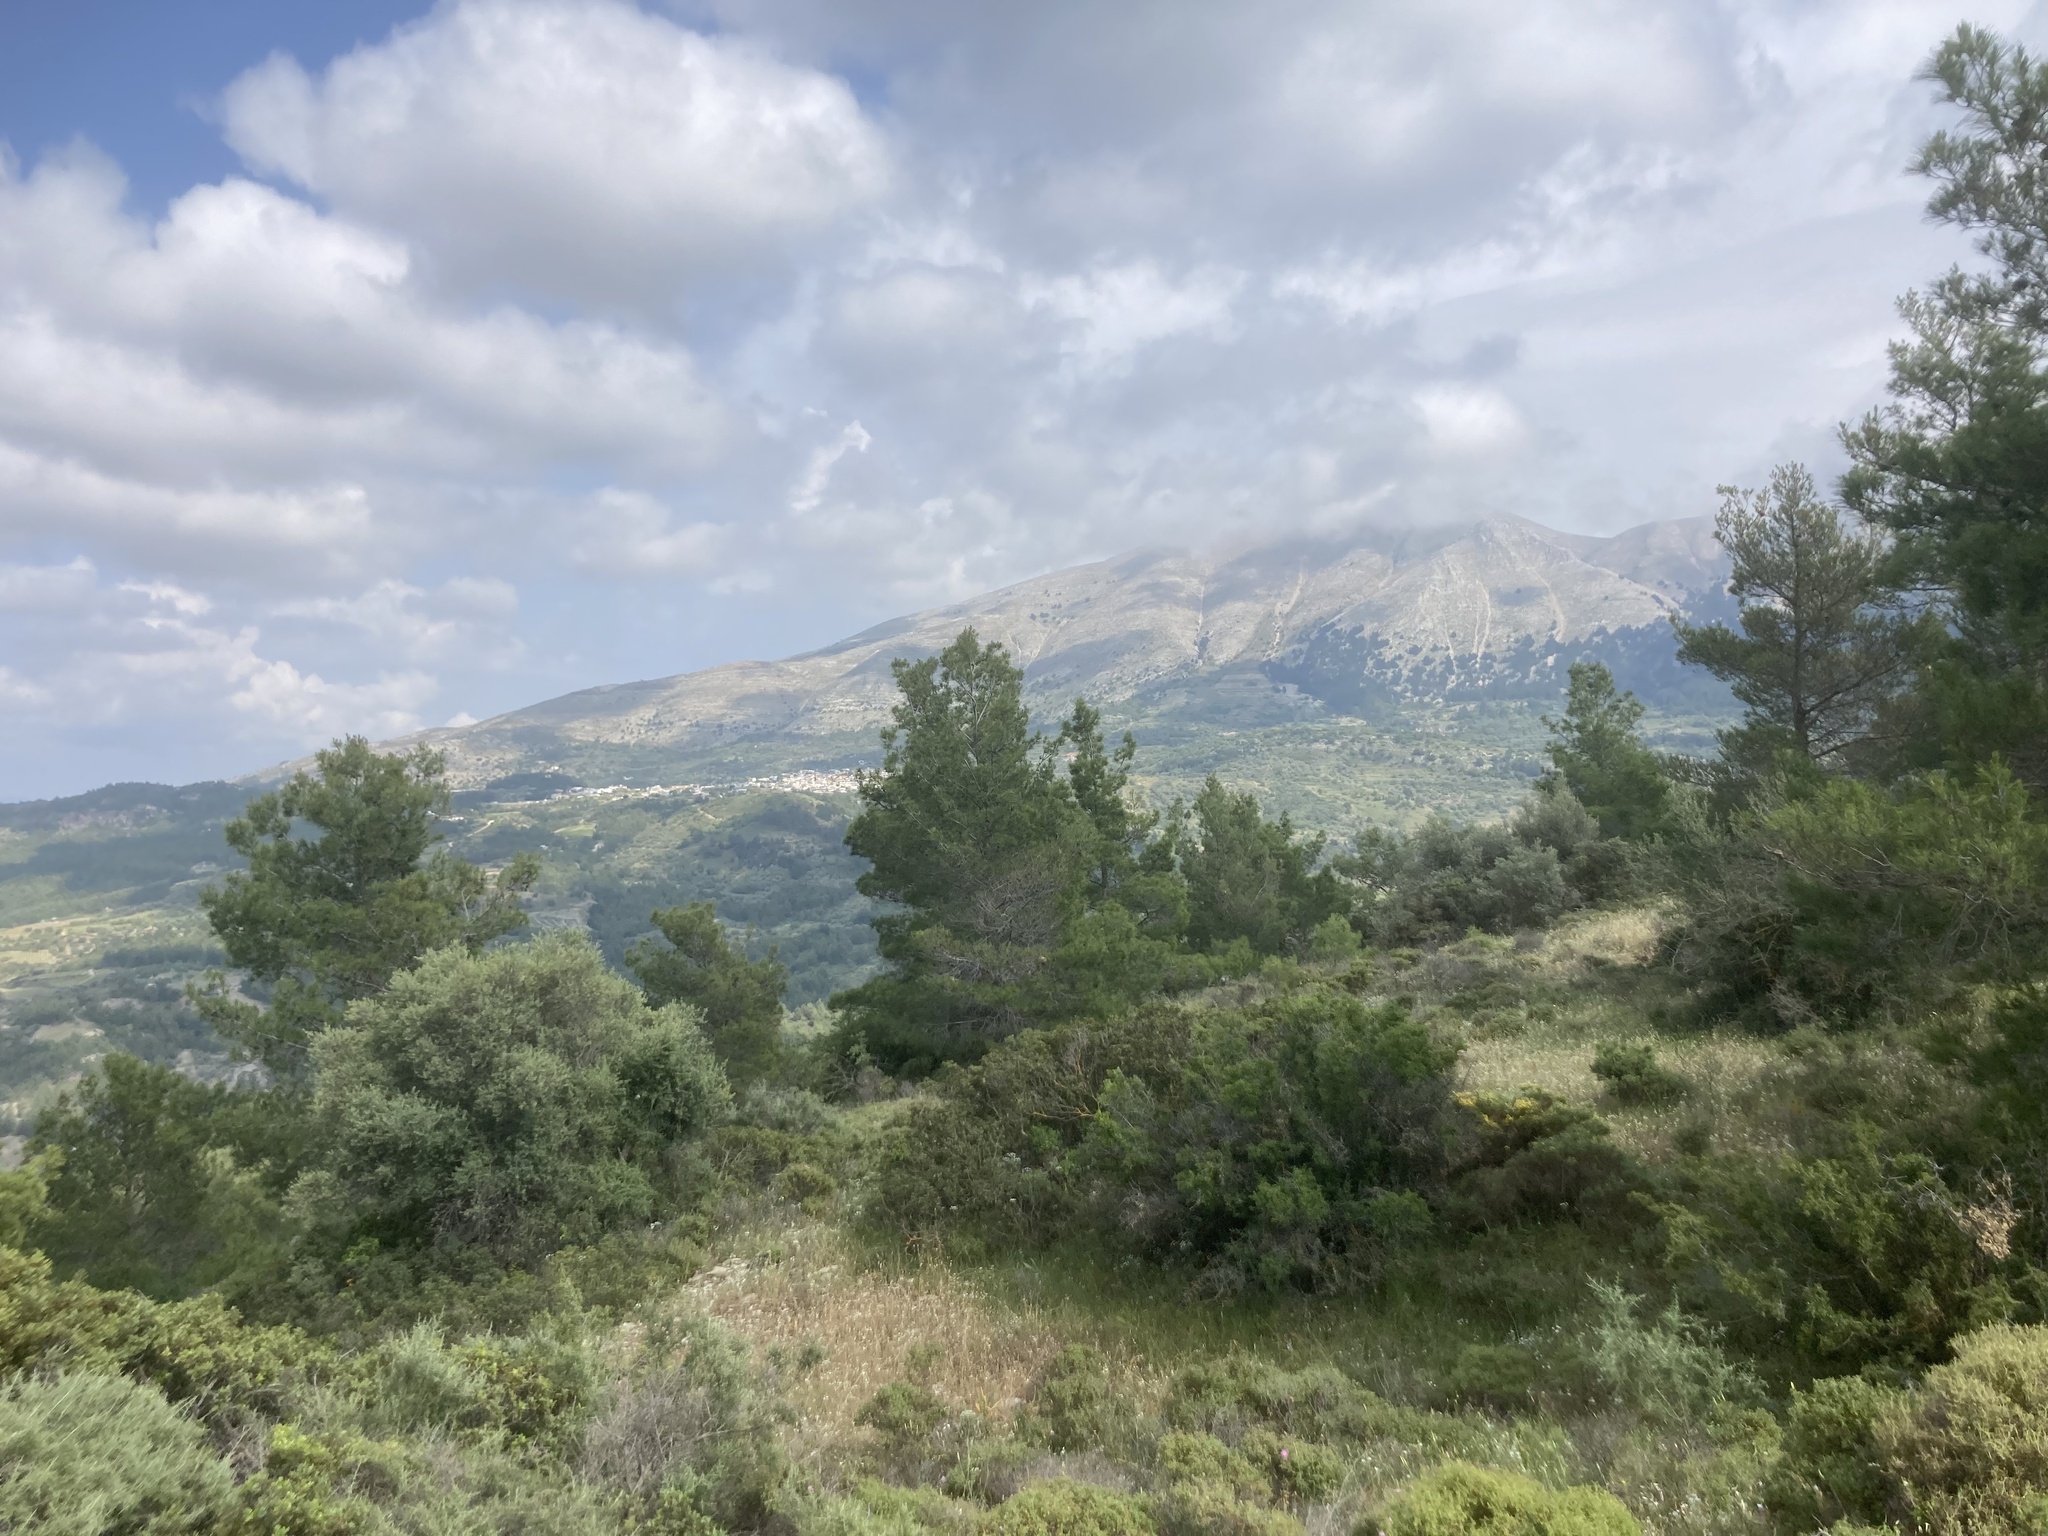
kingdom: Plantae
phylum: Tracheophyta
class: Pinopsida
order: Pinales
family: Pinaceae
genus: Pinus
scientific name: Pinus brutia
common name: Turkish pine
